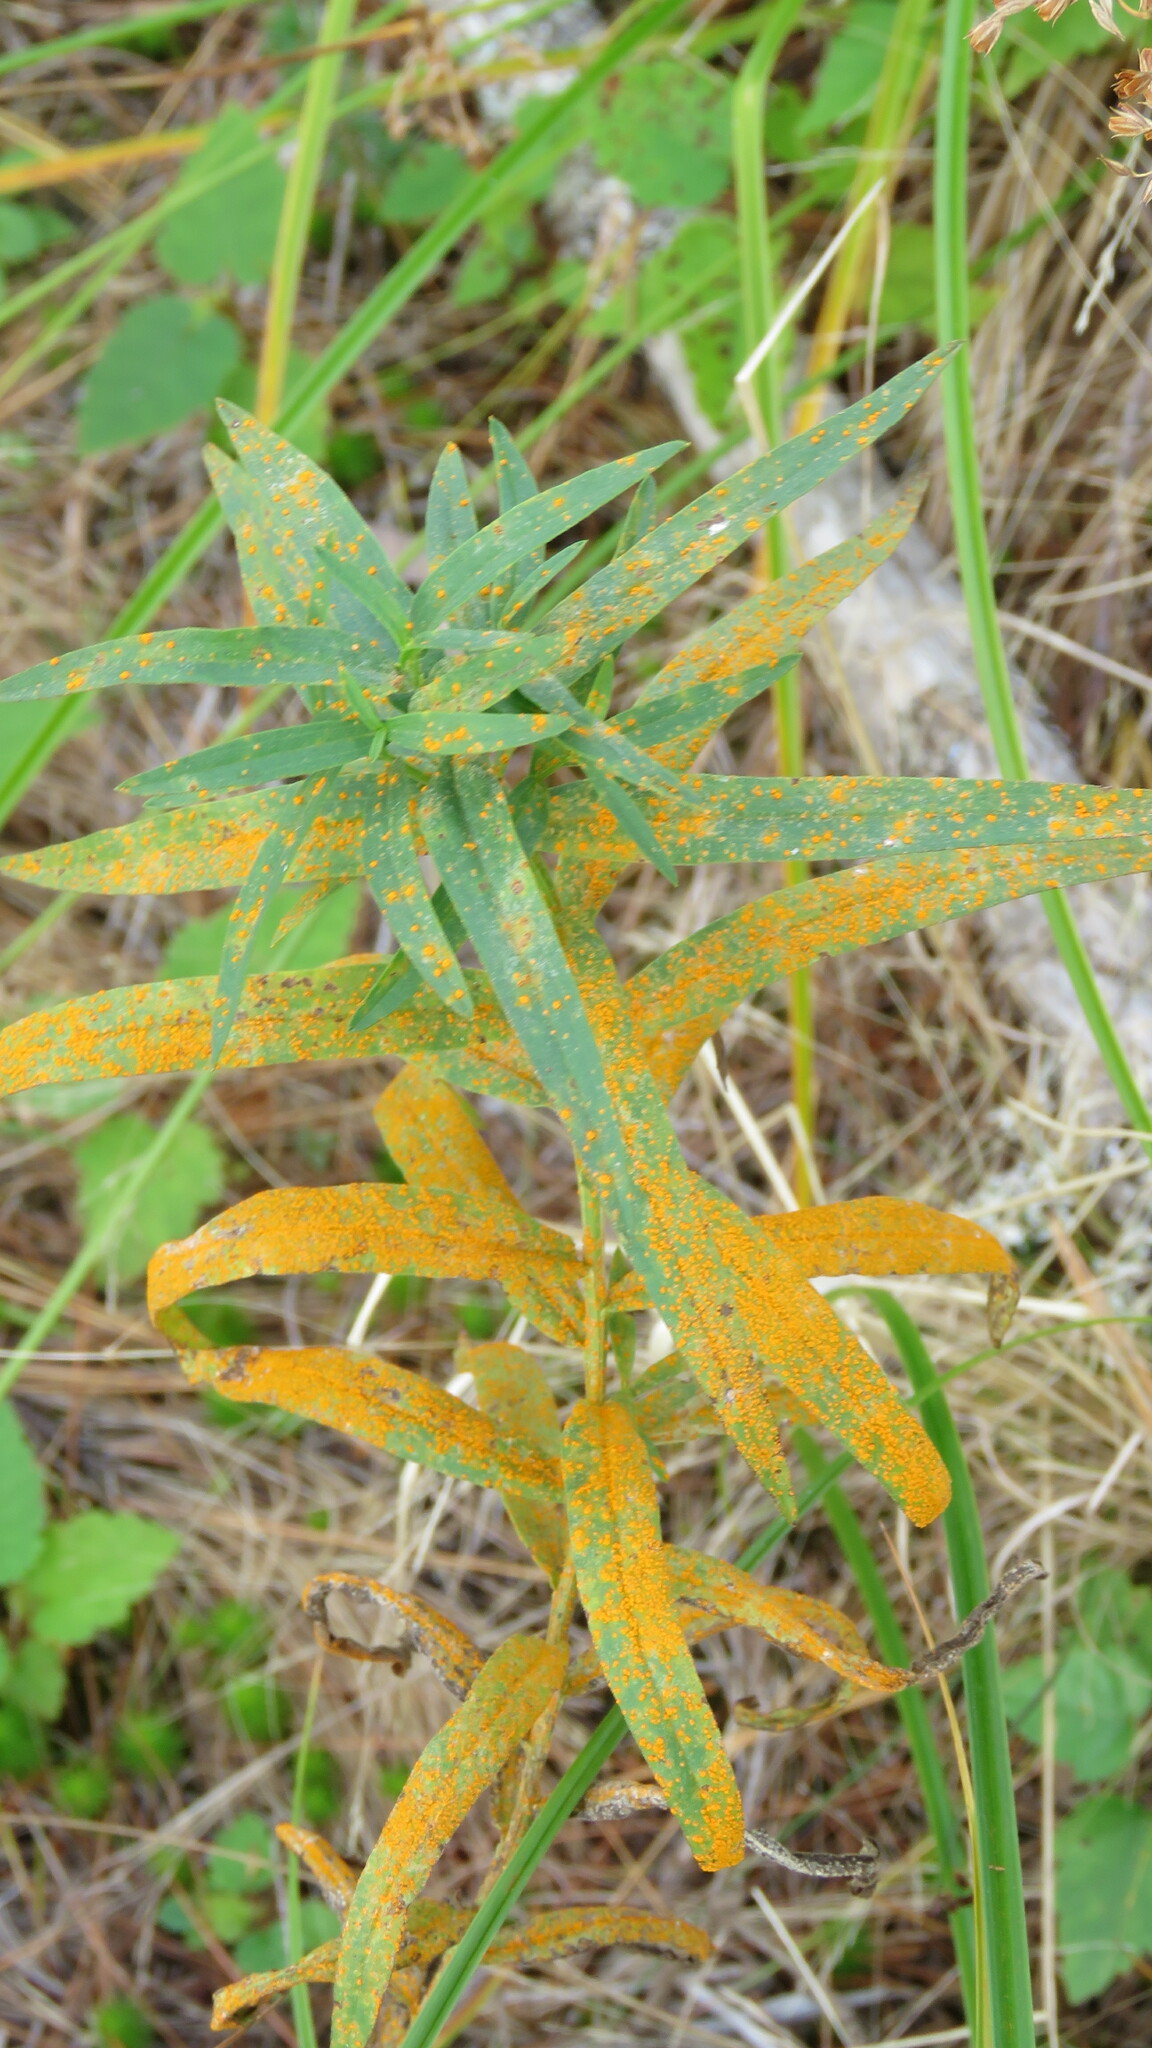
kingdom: Fungi
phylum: Basidiomycota
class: Pucciniomycetes
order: Pucciniales
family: Coleosporiaceae
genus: Coleosporium
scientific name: Coleosporium asterum
